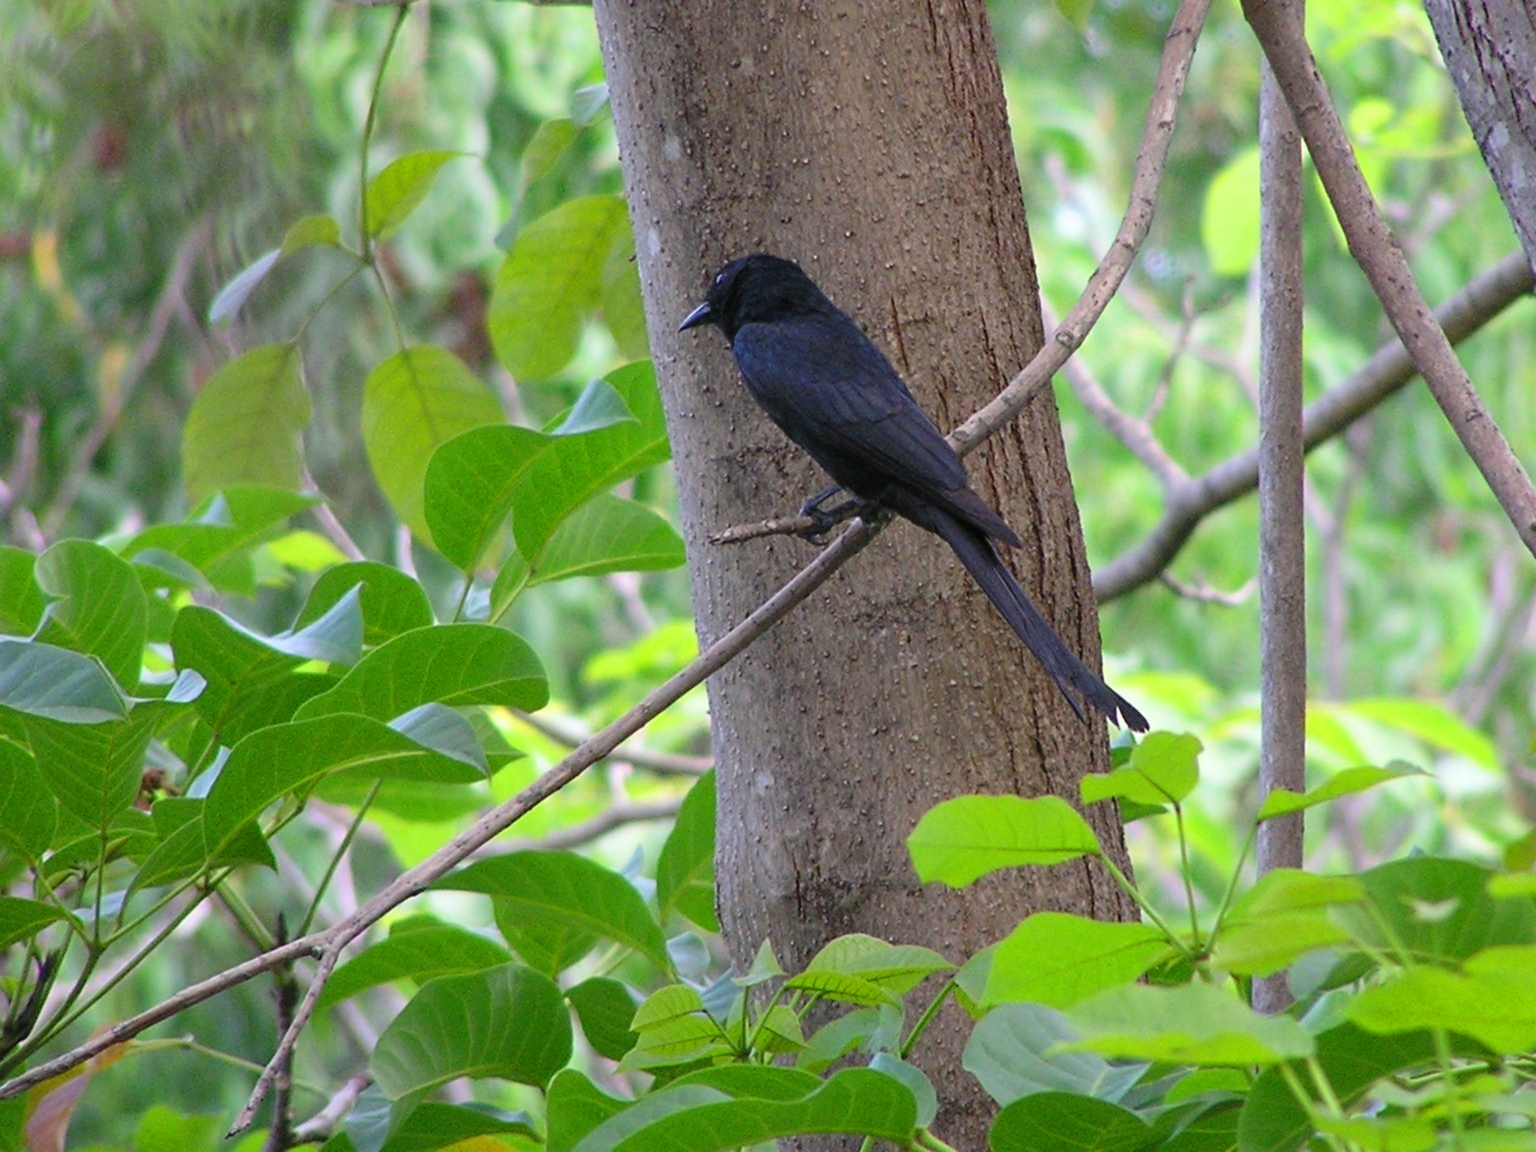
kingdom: Animalia
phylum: Chordata
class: Aves
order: Passeriformes
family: Dicruridae
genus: Dicrurus
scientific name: Dicrurus macrocercus
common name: Black drongo
